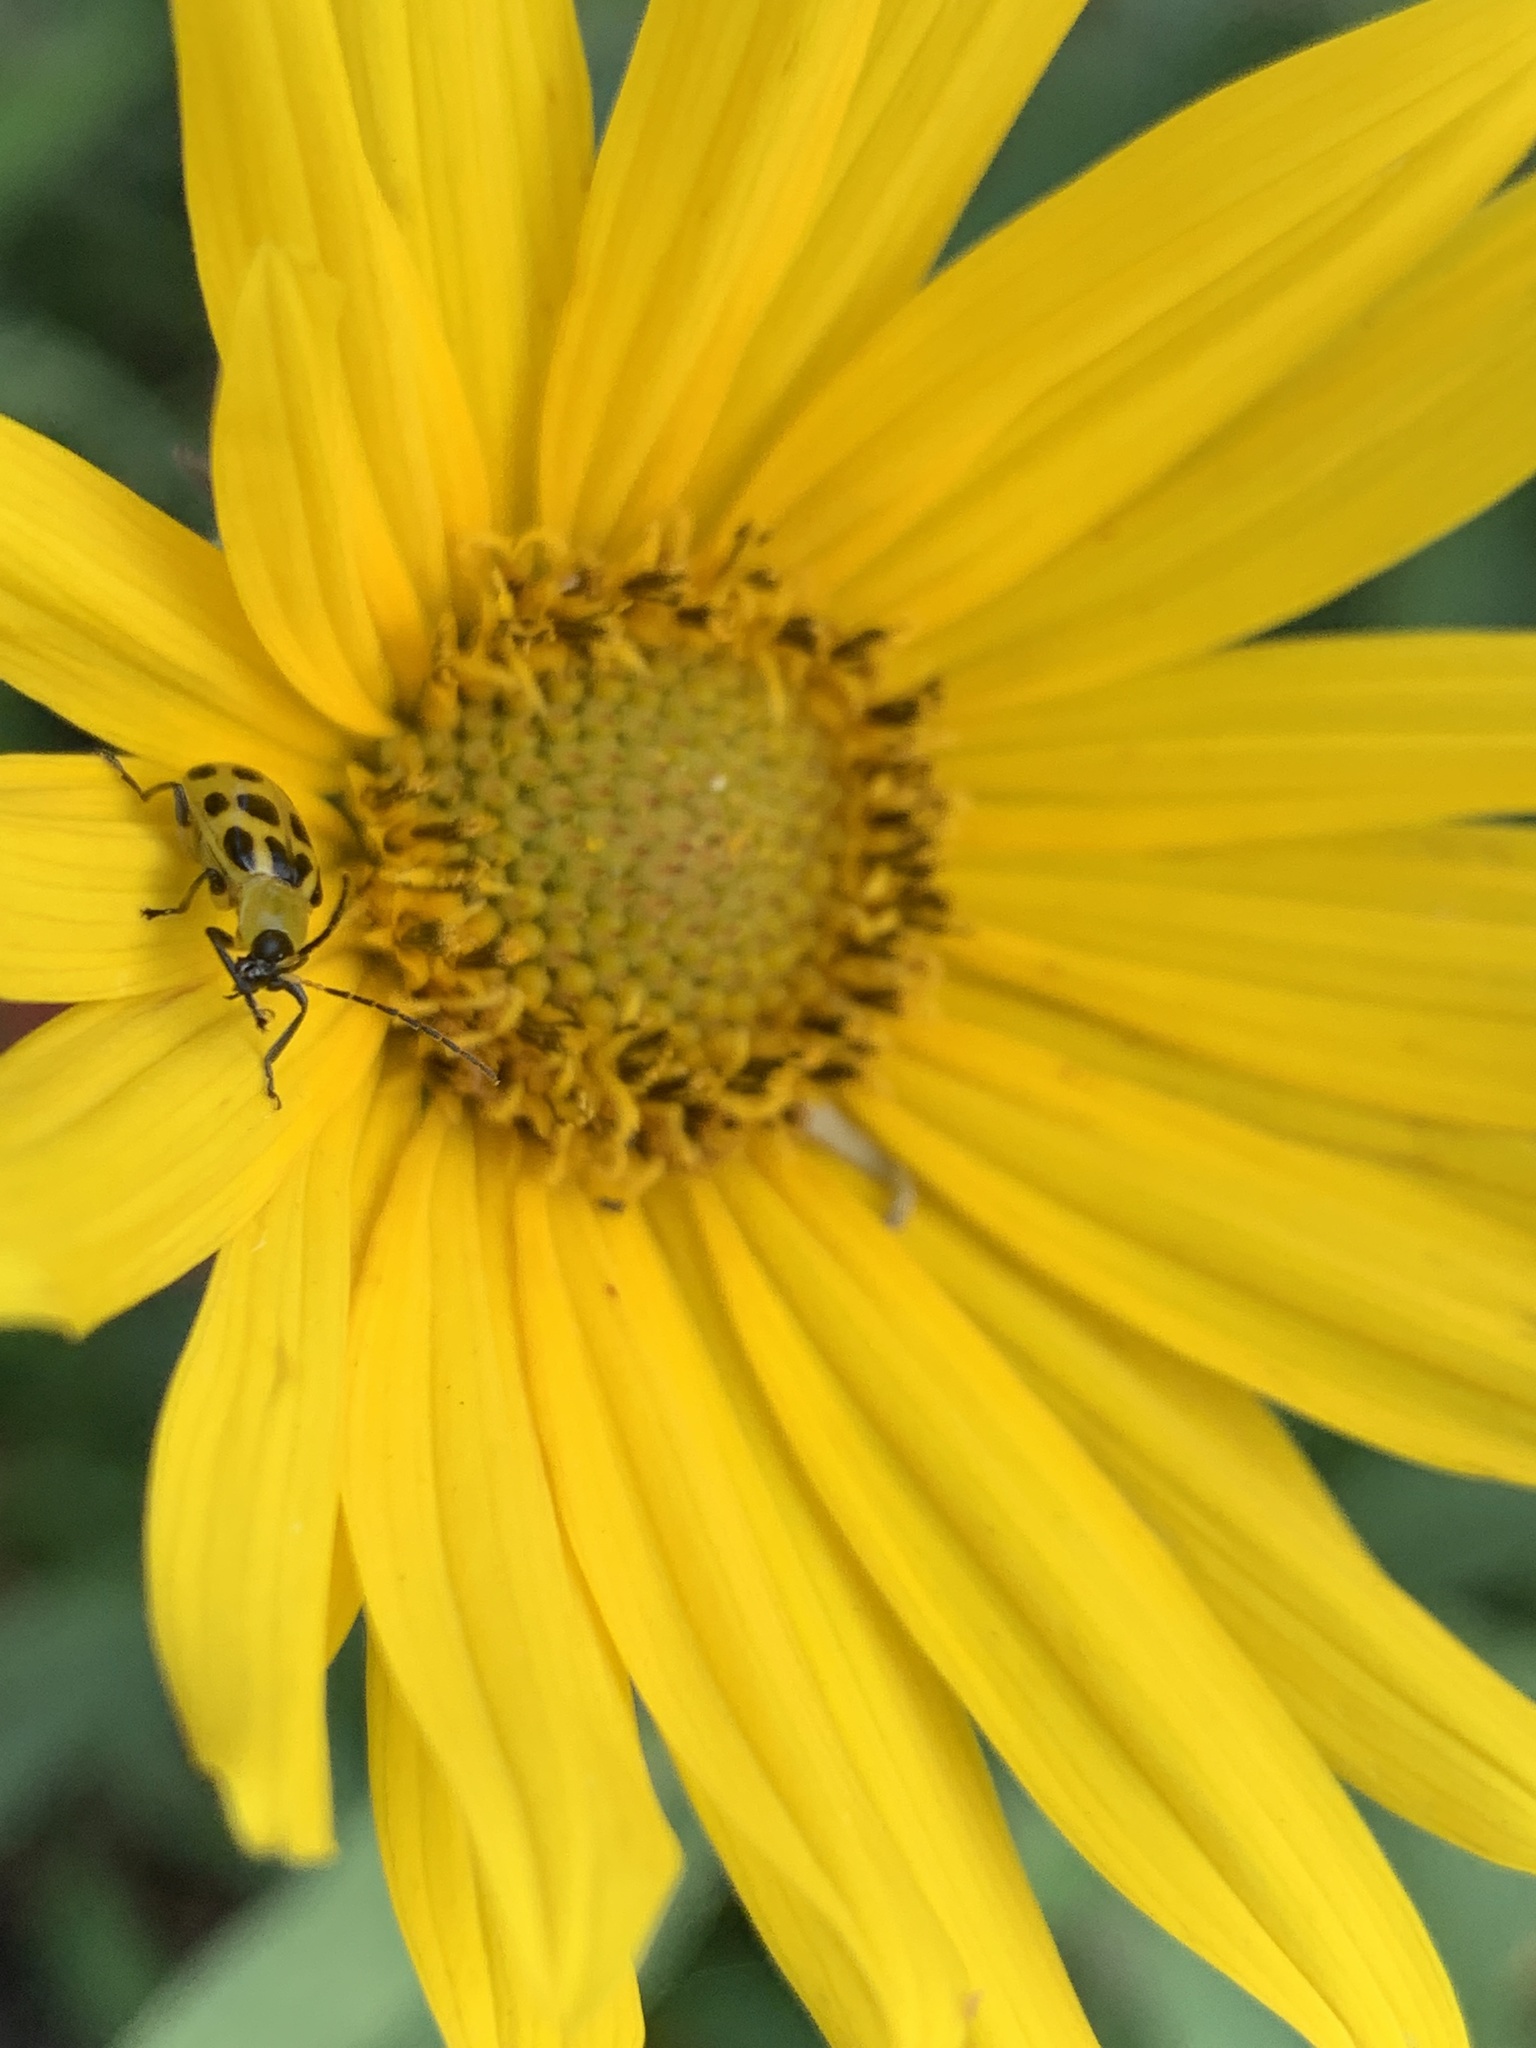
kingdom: Animalia
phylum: Arthropoda
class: Insecta
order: Coleoptera
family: Chrysomelidae
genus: Diabrotica
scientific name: Diabrotica undecimpunctata
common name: Spotted cucumber beetle
